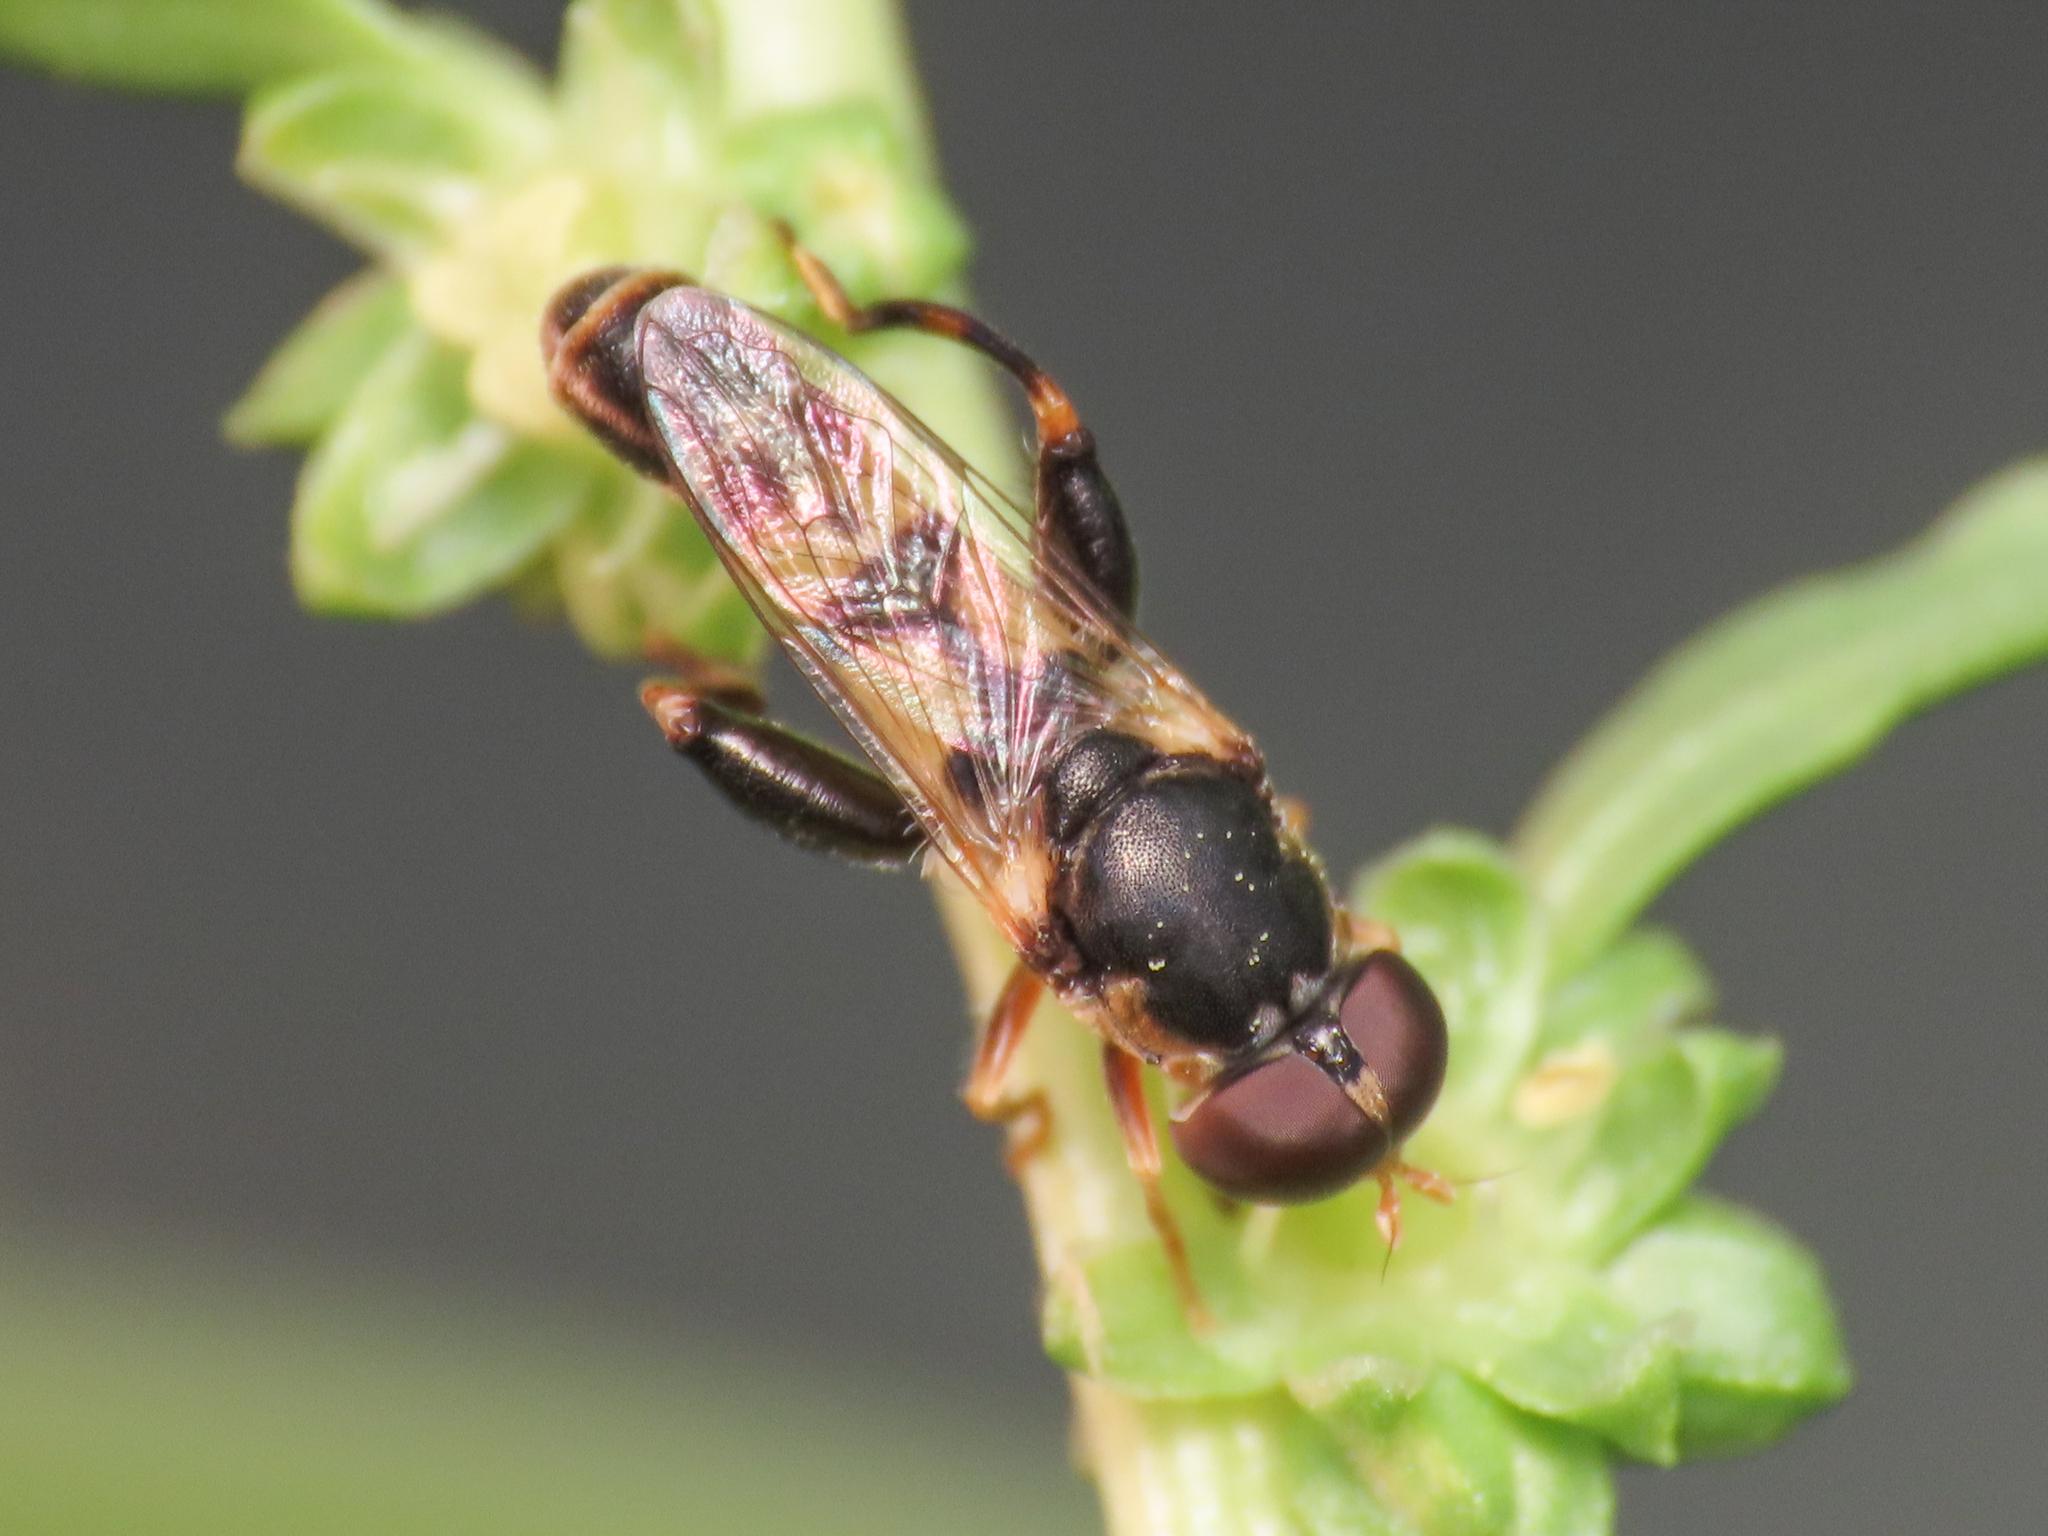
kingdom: Animalia
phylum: Arthropoda
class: Insecta
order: Diptera
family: Syrphidae
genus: Syritta
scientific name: Syritta pipiens
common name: Hover fly
